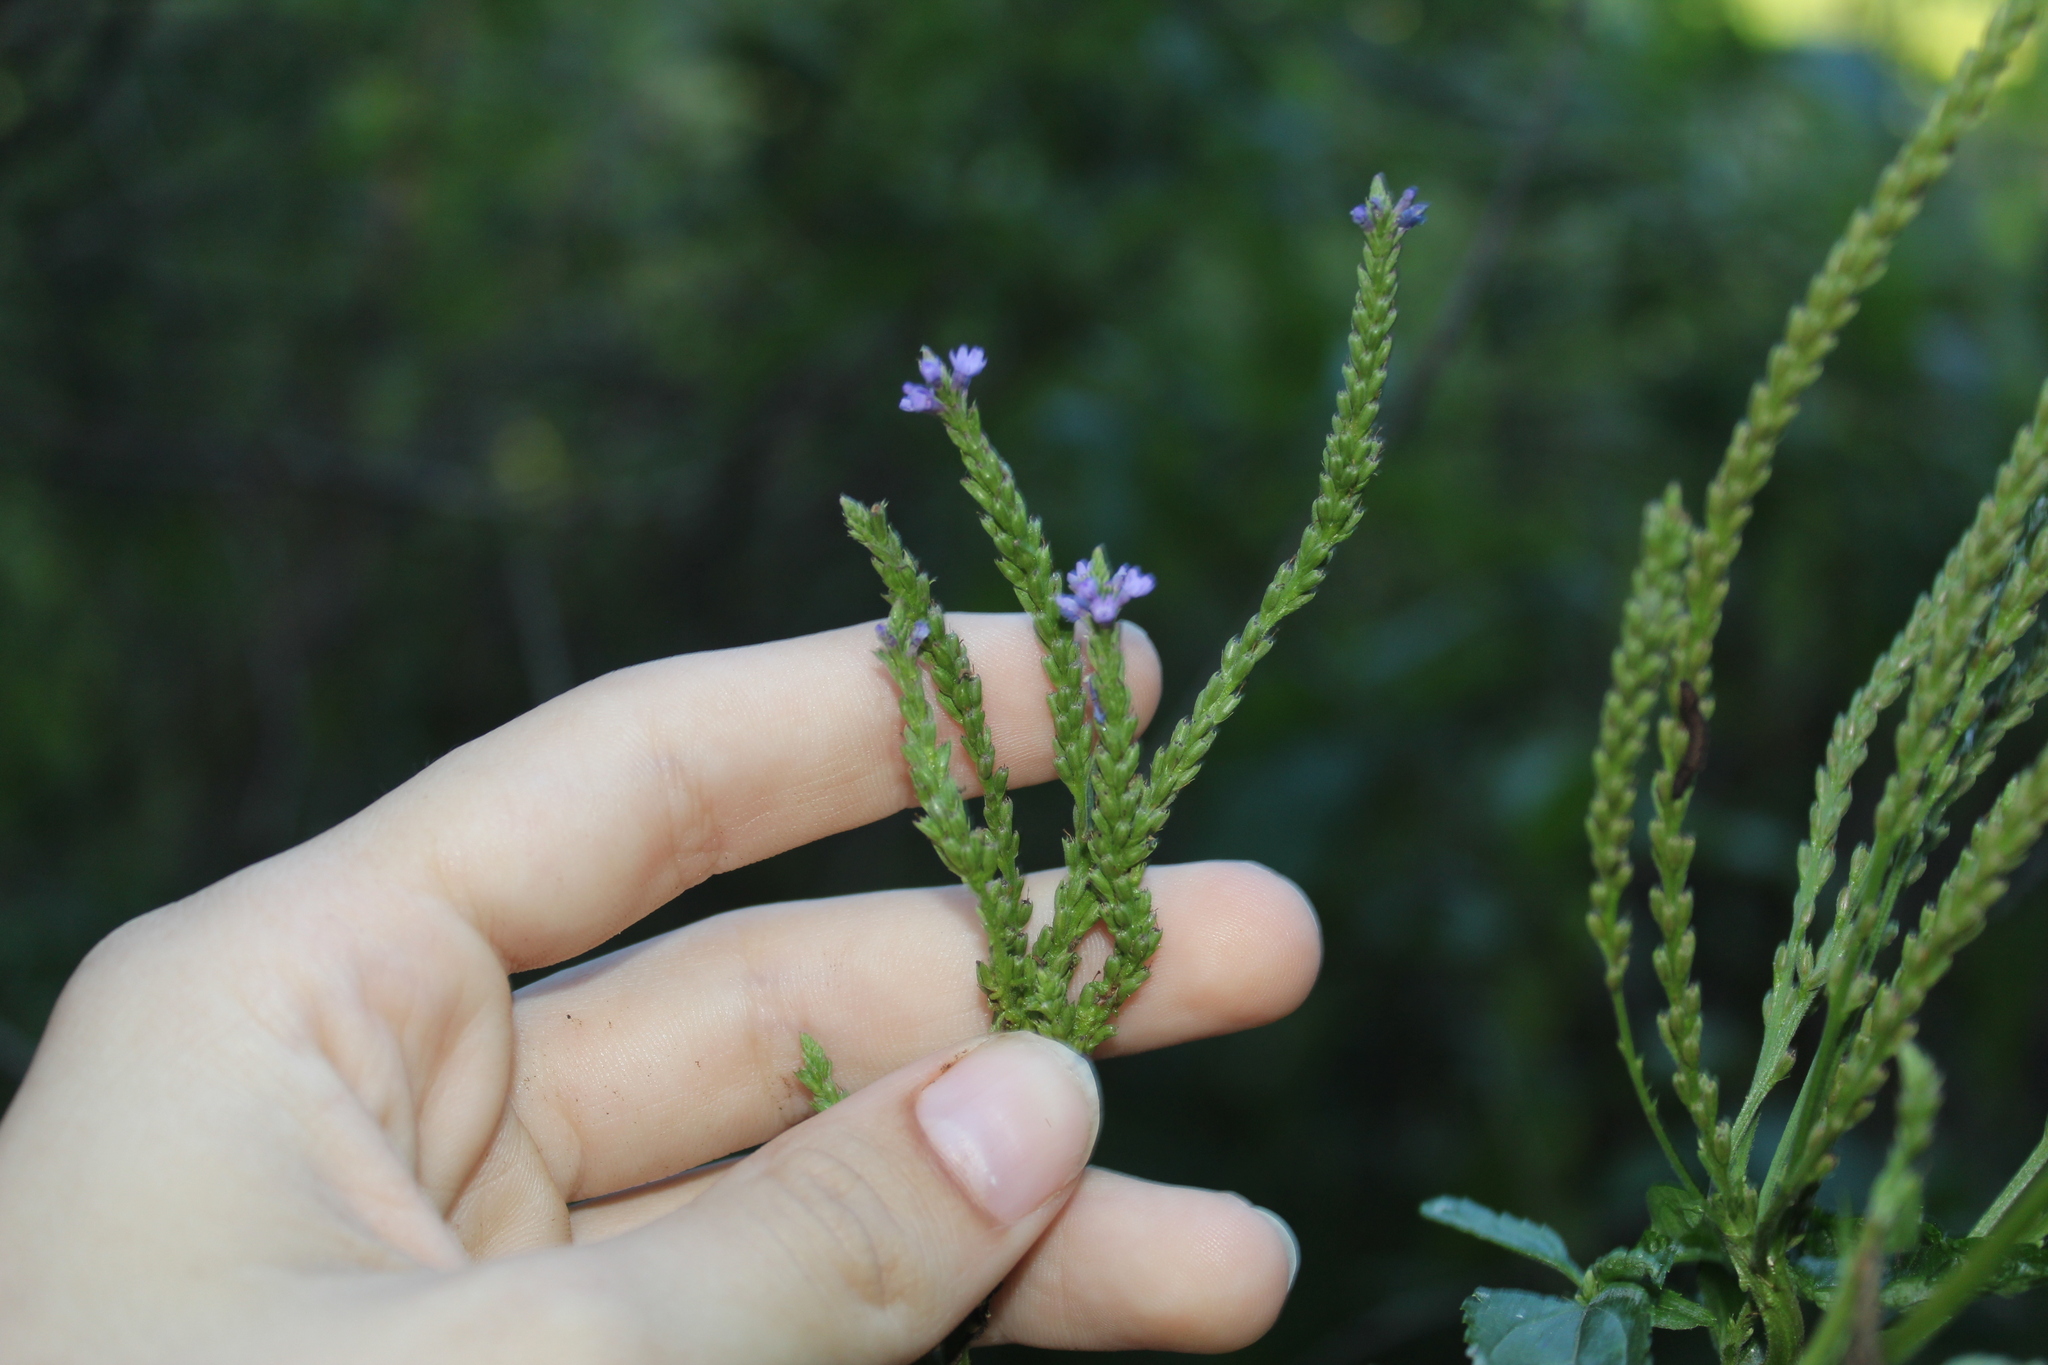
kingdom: Plantae
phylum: Tracheophyta
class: Magnoliopsida
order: Lamiales
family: Verbenaceae
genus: Verbena
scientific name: Verbena hastata
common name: American blue vervain
